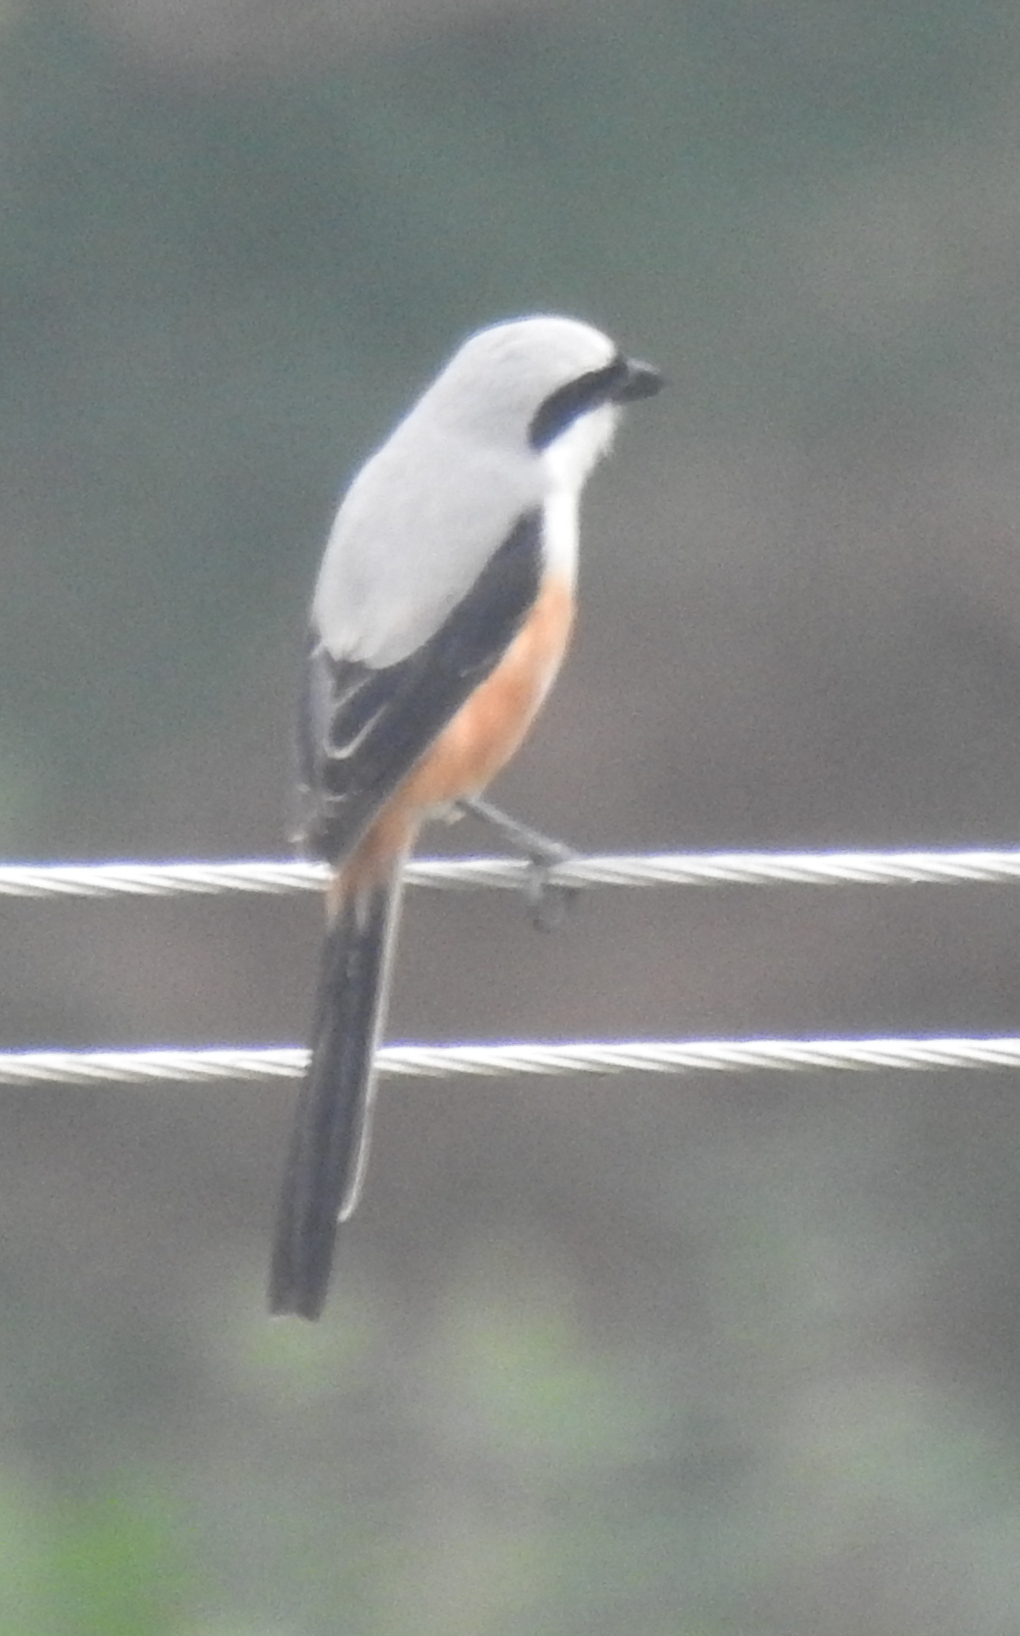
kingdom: Animalia
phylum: Chordata
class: Aves
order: Passeriformes
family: Laniidae
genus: Lanius
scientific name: Lanius schach
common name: Long-tailed shrike
